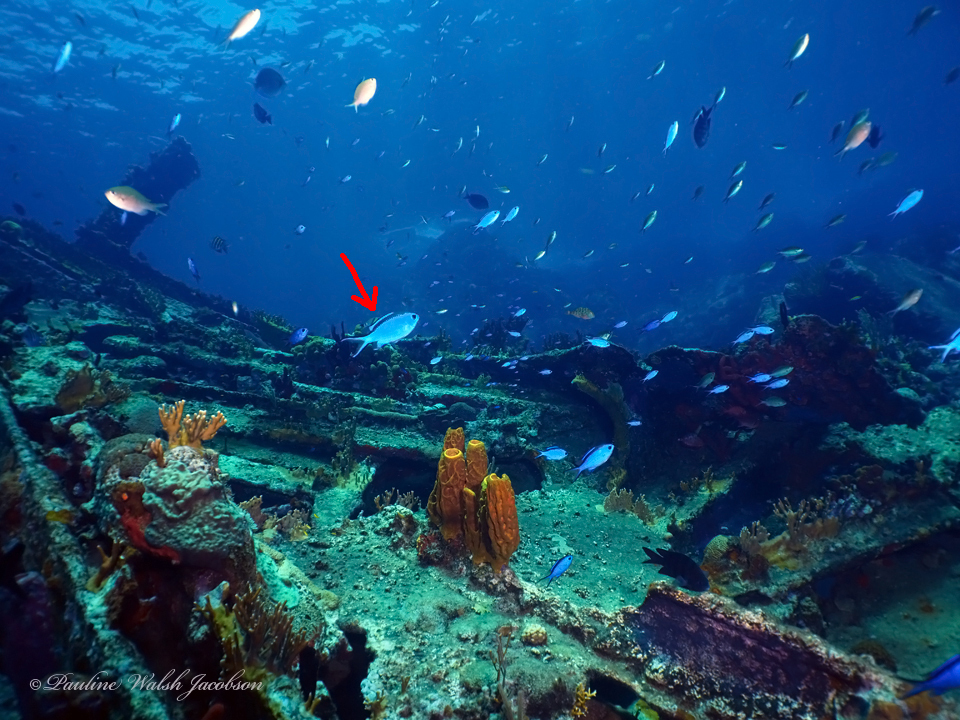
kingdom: Animalia
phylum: Chordata
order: Perciformes
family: Pomacentridae
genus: Chromis
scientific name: Chromis cyanea
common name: Blue chromis
